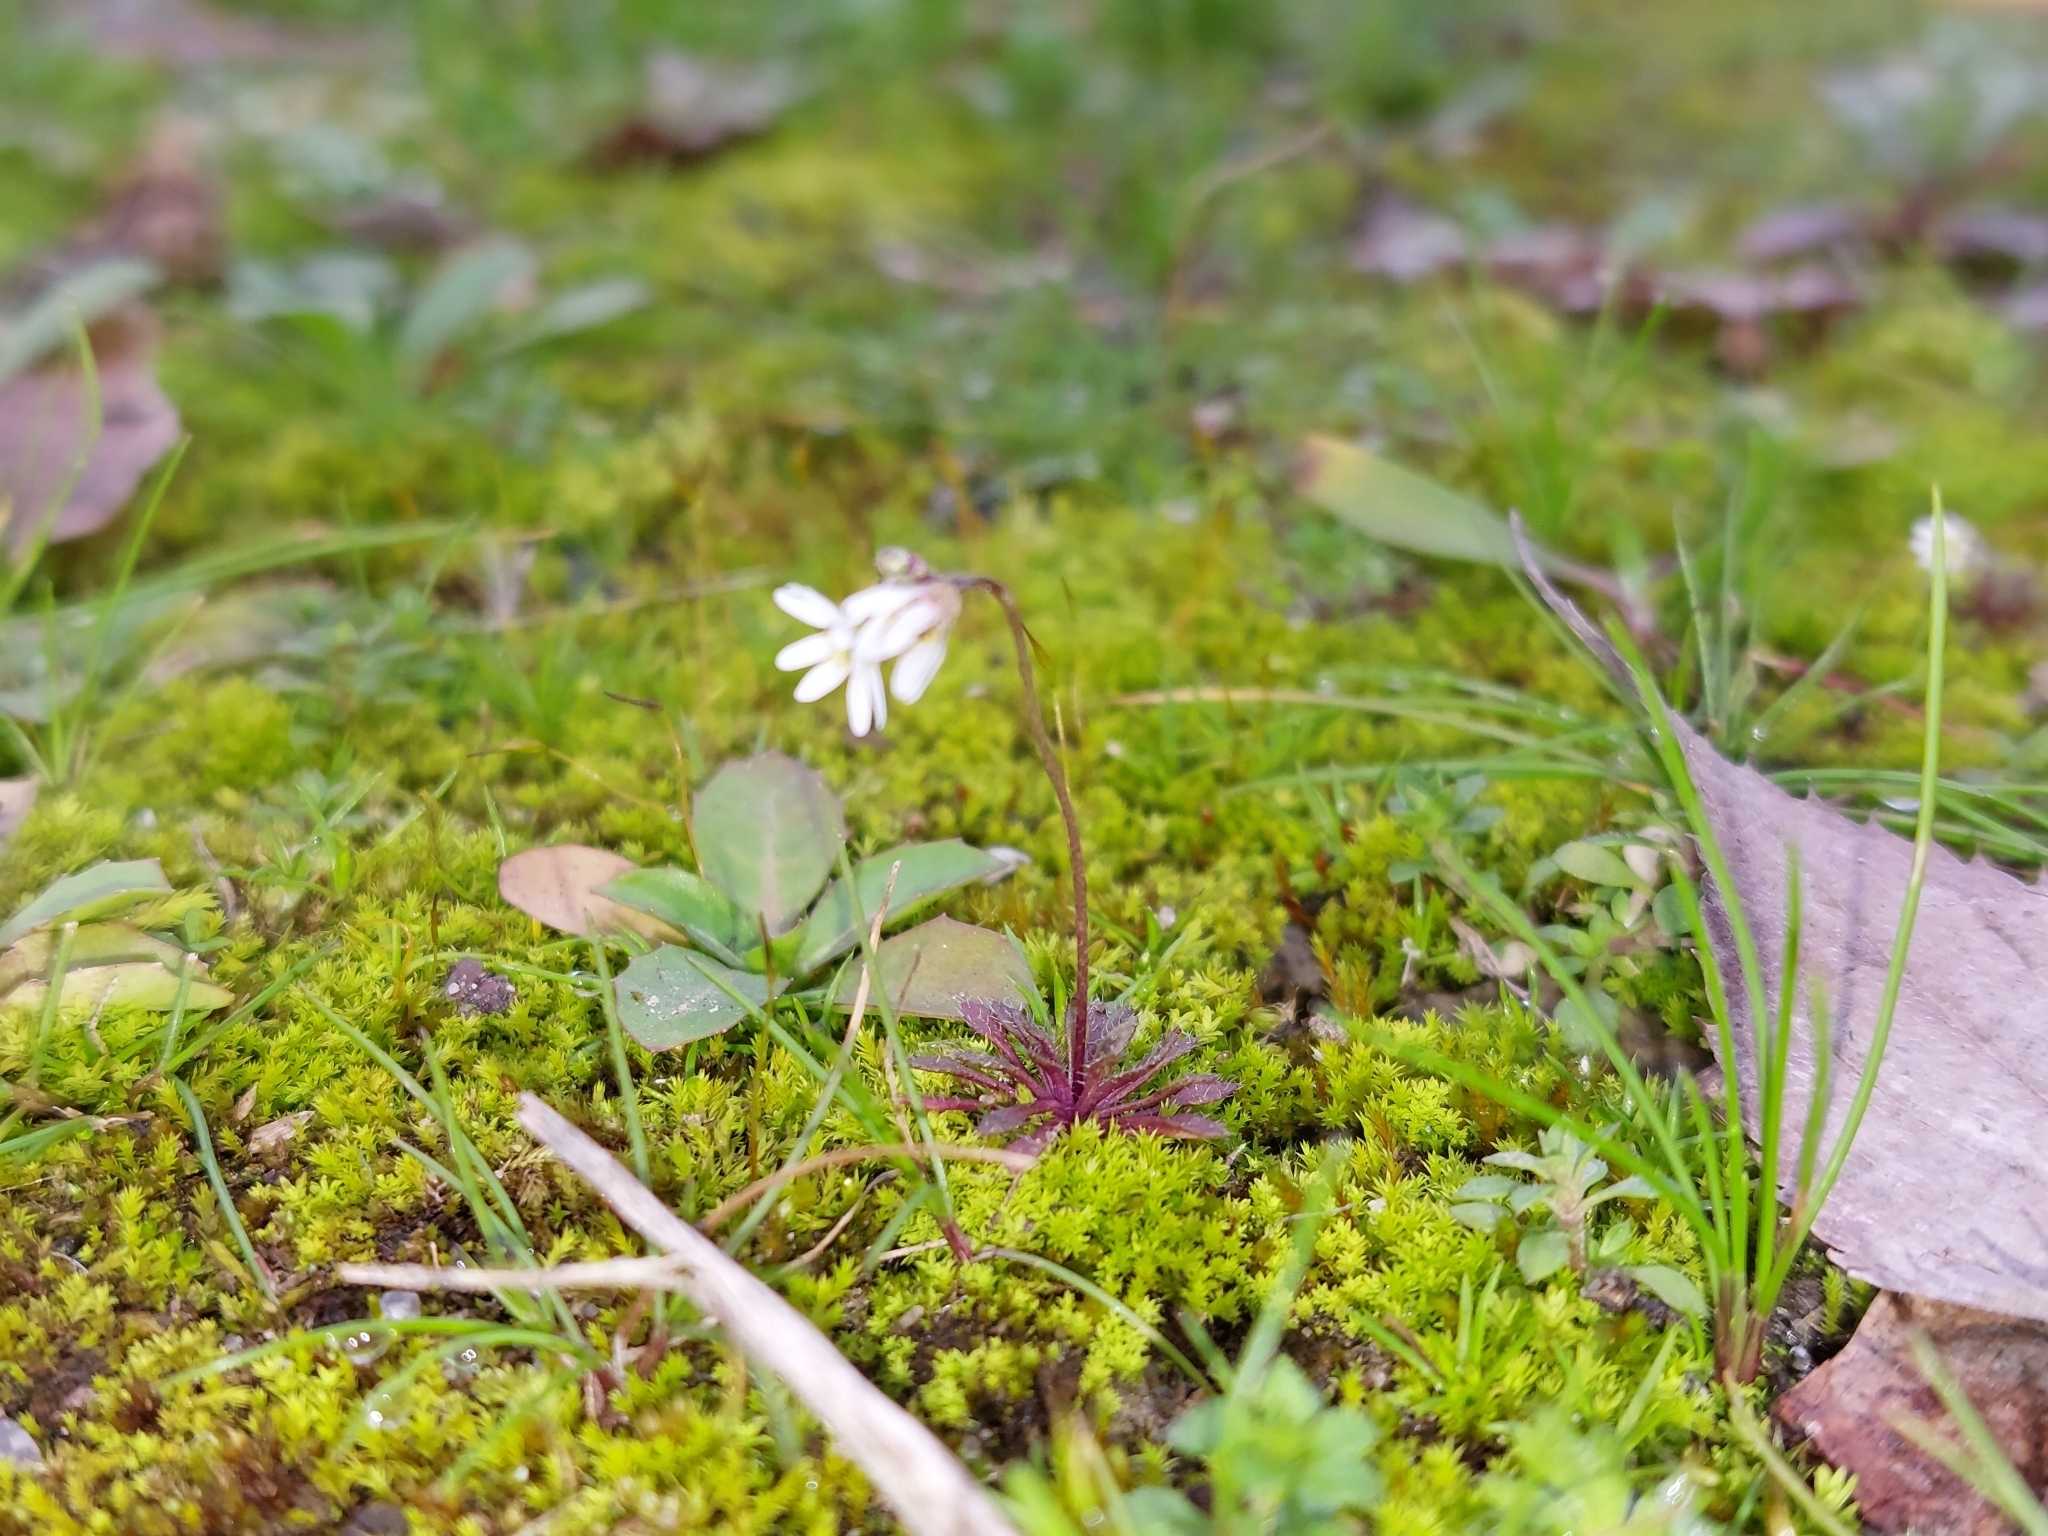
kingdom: Plantae
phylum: Tracheophyta
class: Magnoliopsida
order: Brassicales
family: Brassicaceae
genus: Draba
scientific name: Draba verna
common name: Spring draba
